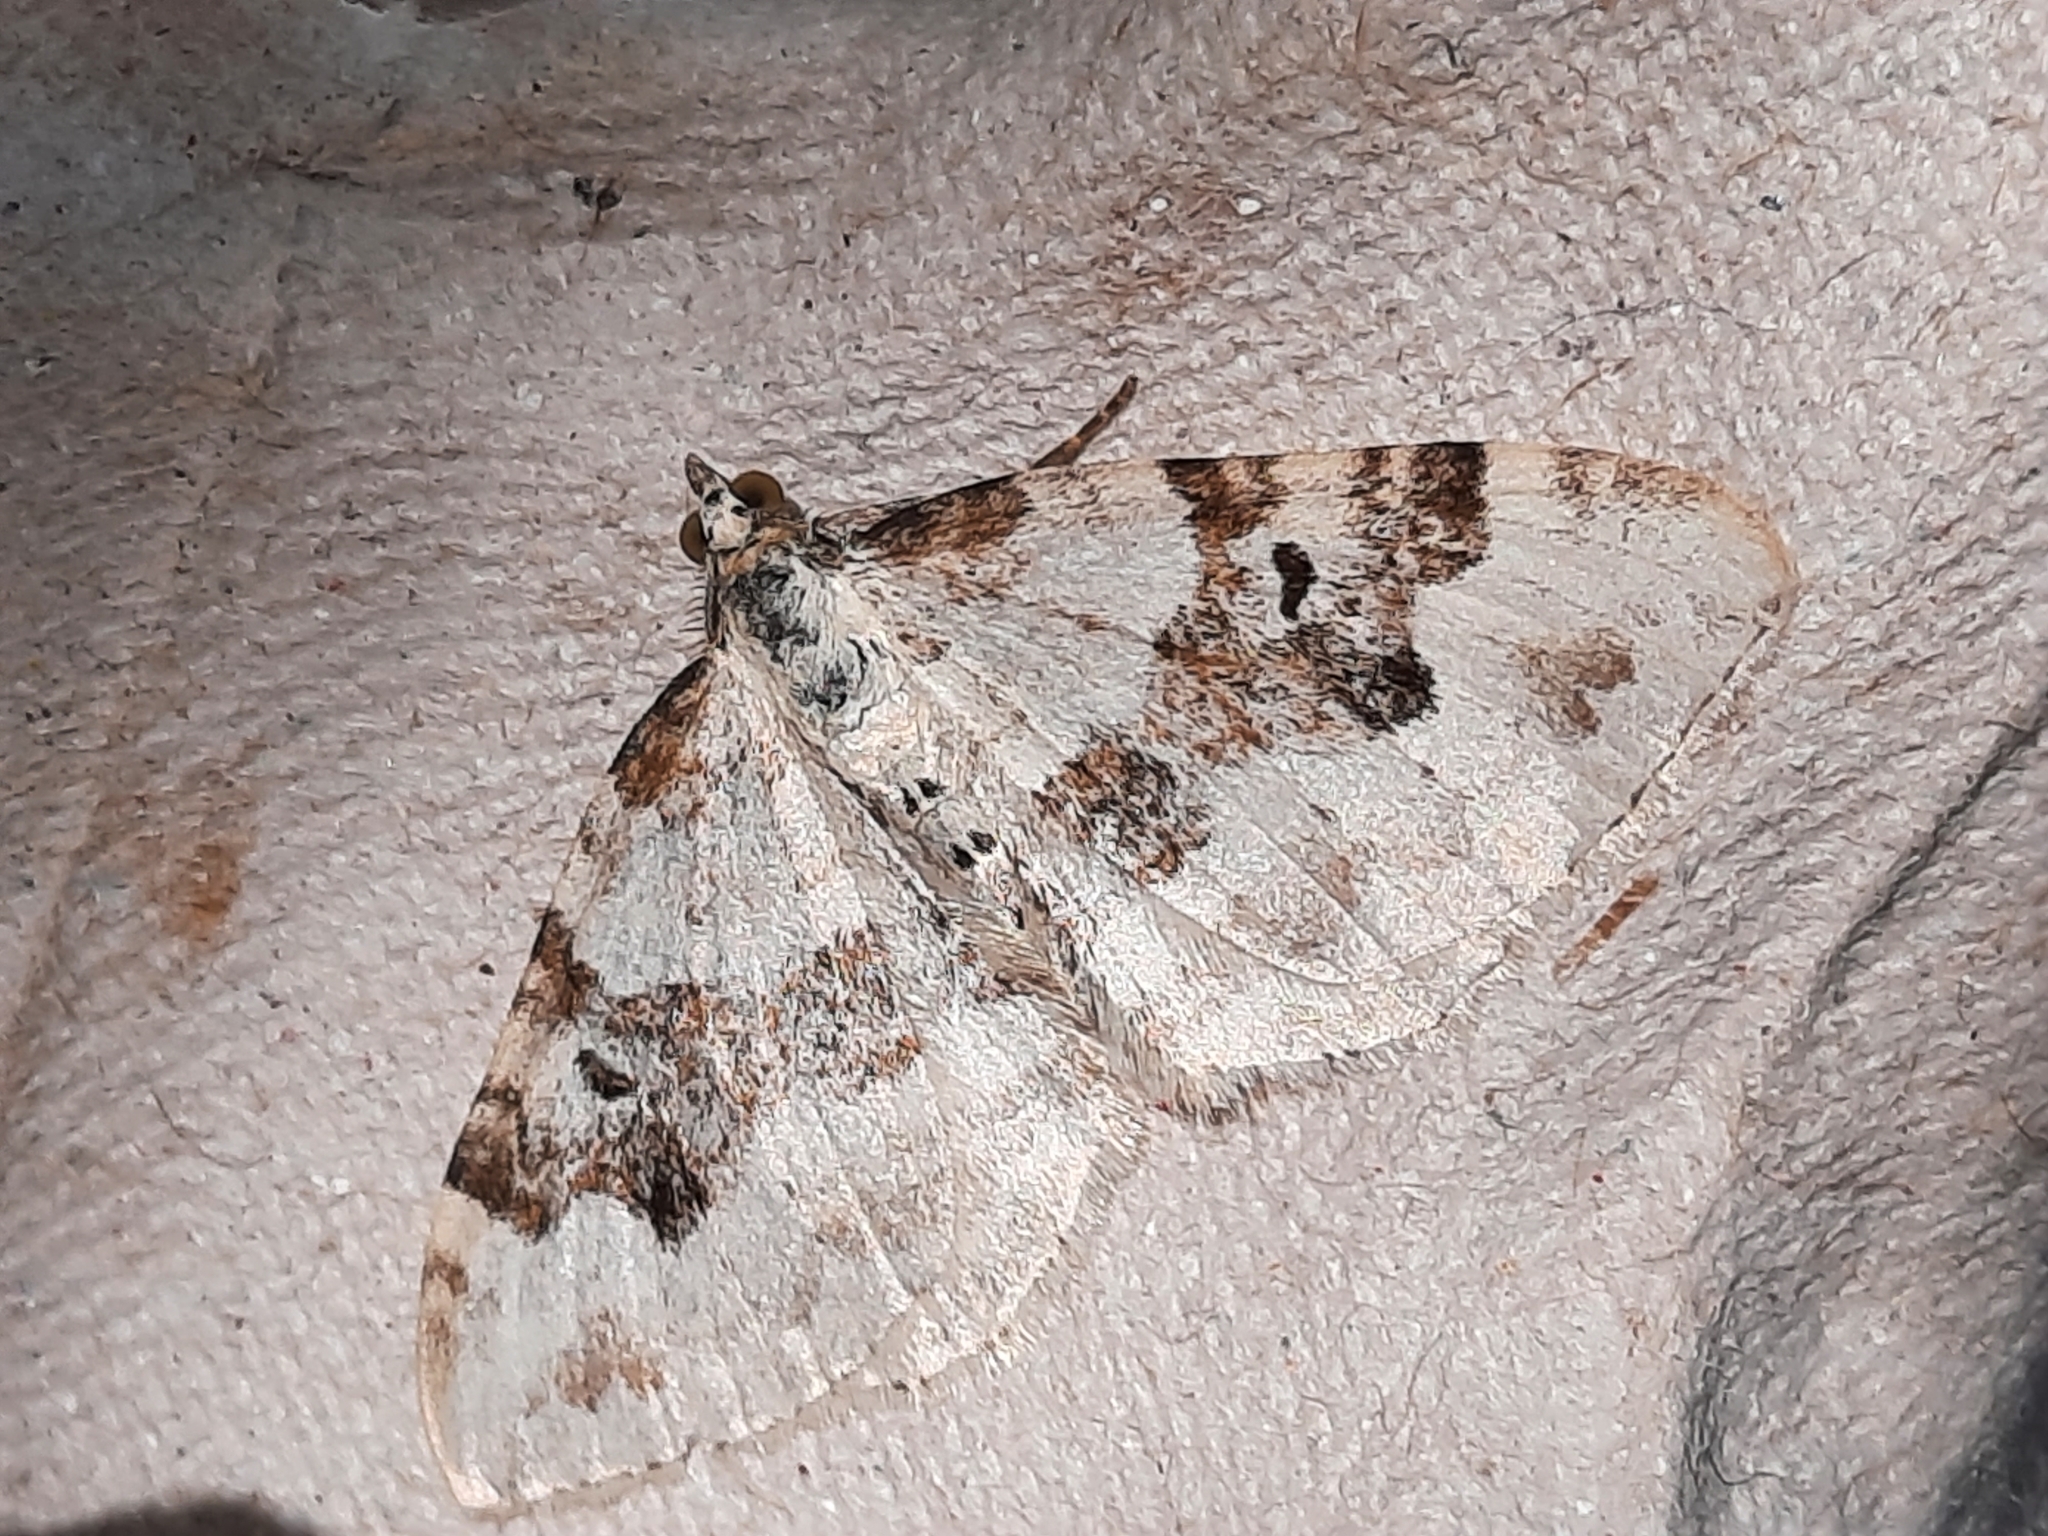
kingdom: Animalia
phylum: Arthropoda
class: Insecta
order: Lepidoptera
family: Geometridae
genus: Xanthorhoe
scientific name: Xanthorhoe montanata
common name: Silver-ground carpet
